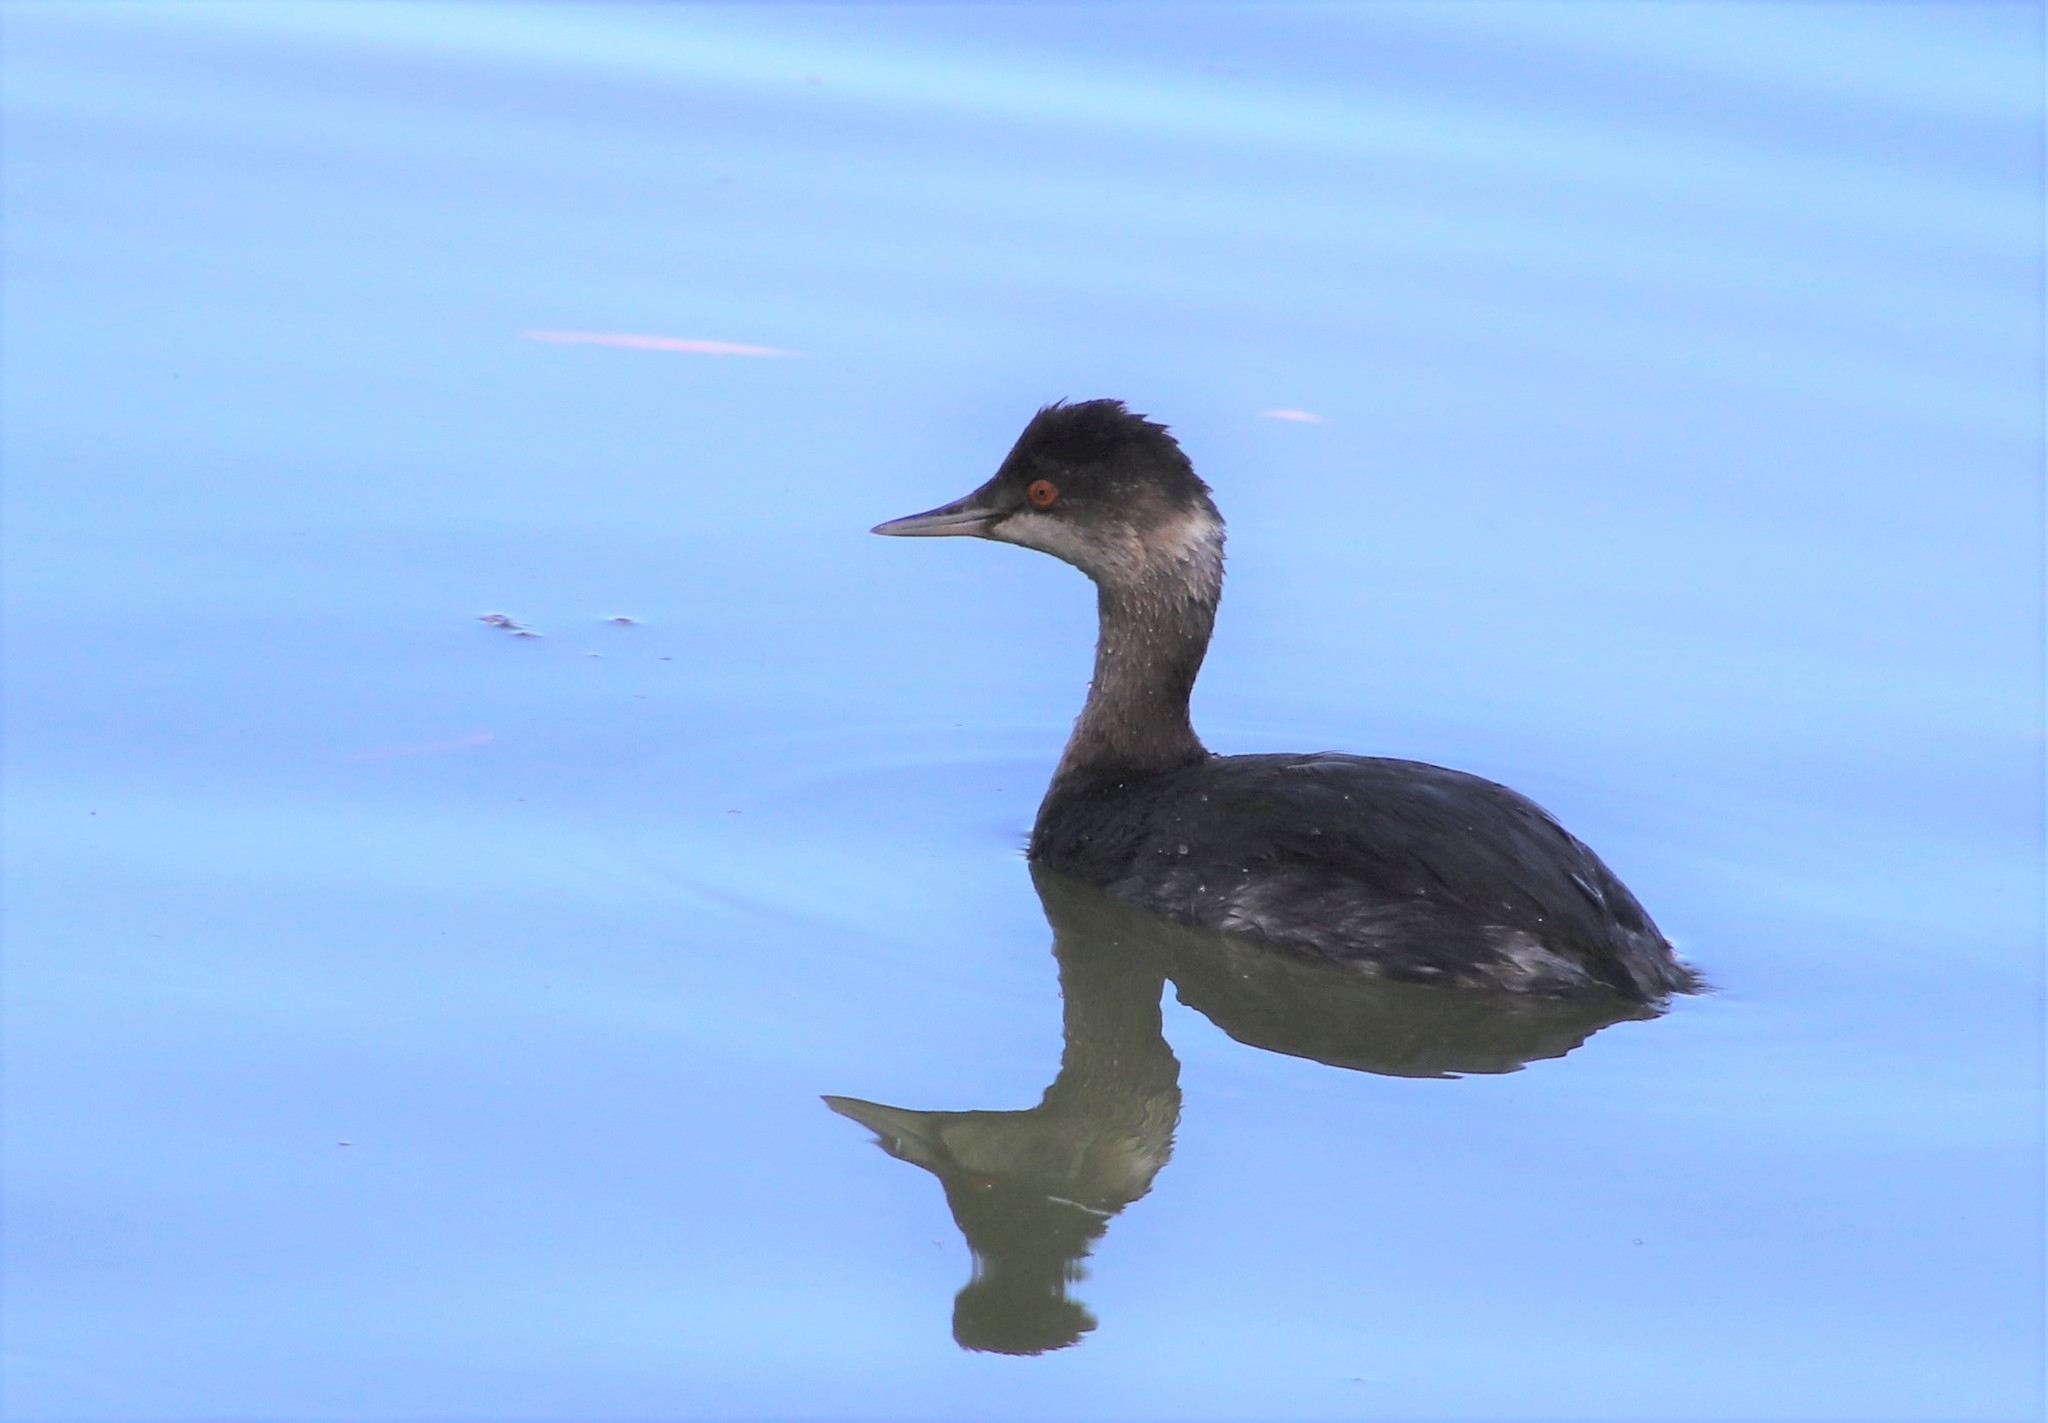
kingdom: Animalia
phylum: Chordata
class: Aves
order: Podicipediformes
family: Podicipedidae
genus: Podiceps
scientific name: Podiceps nigricollis
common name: Black-necked grebe
